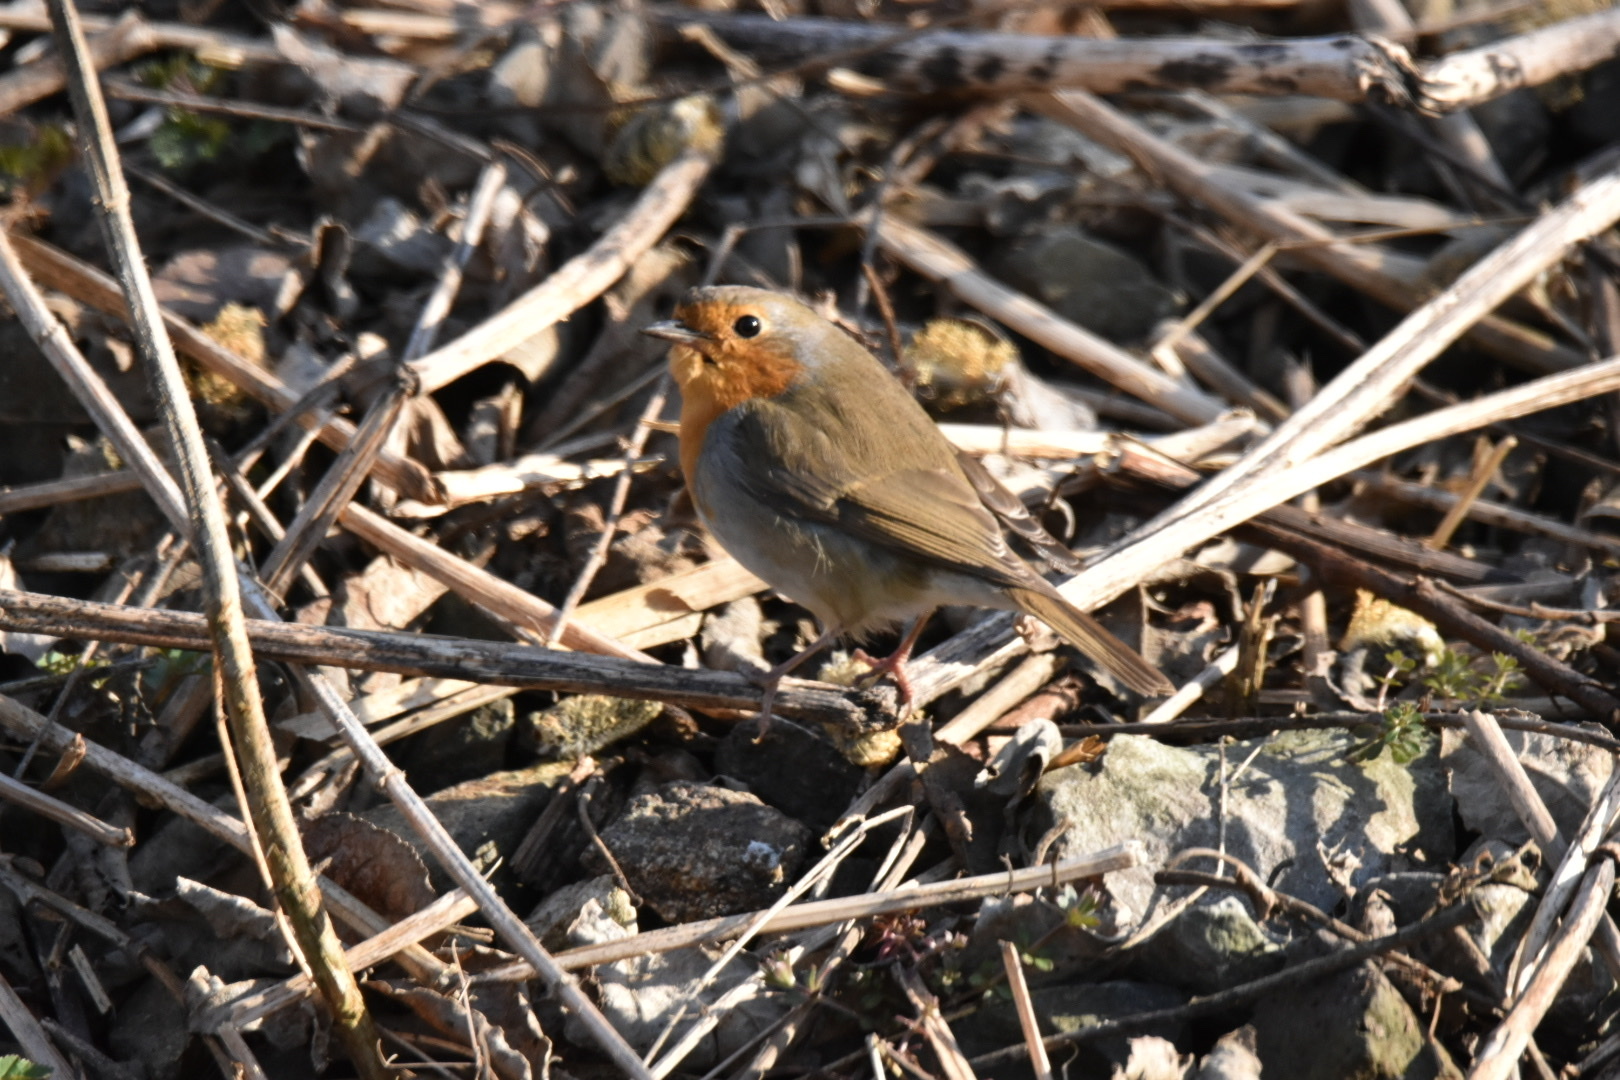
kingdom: Animalia
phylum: Chordata
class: Aves
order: Passeriformes
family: Muscicapidae
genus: Erithacus
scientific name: Erithacus rubecula
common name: European robin
